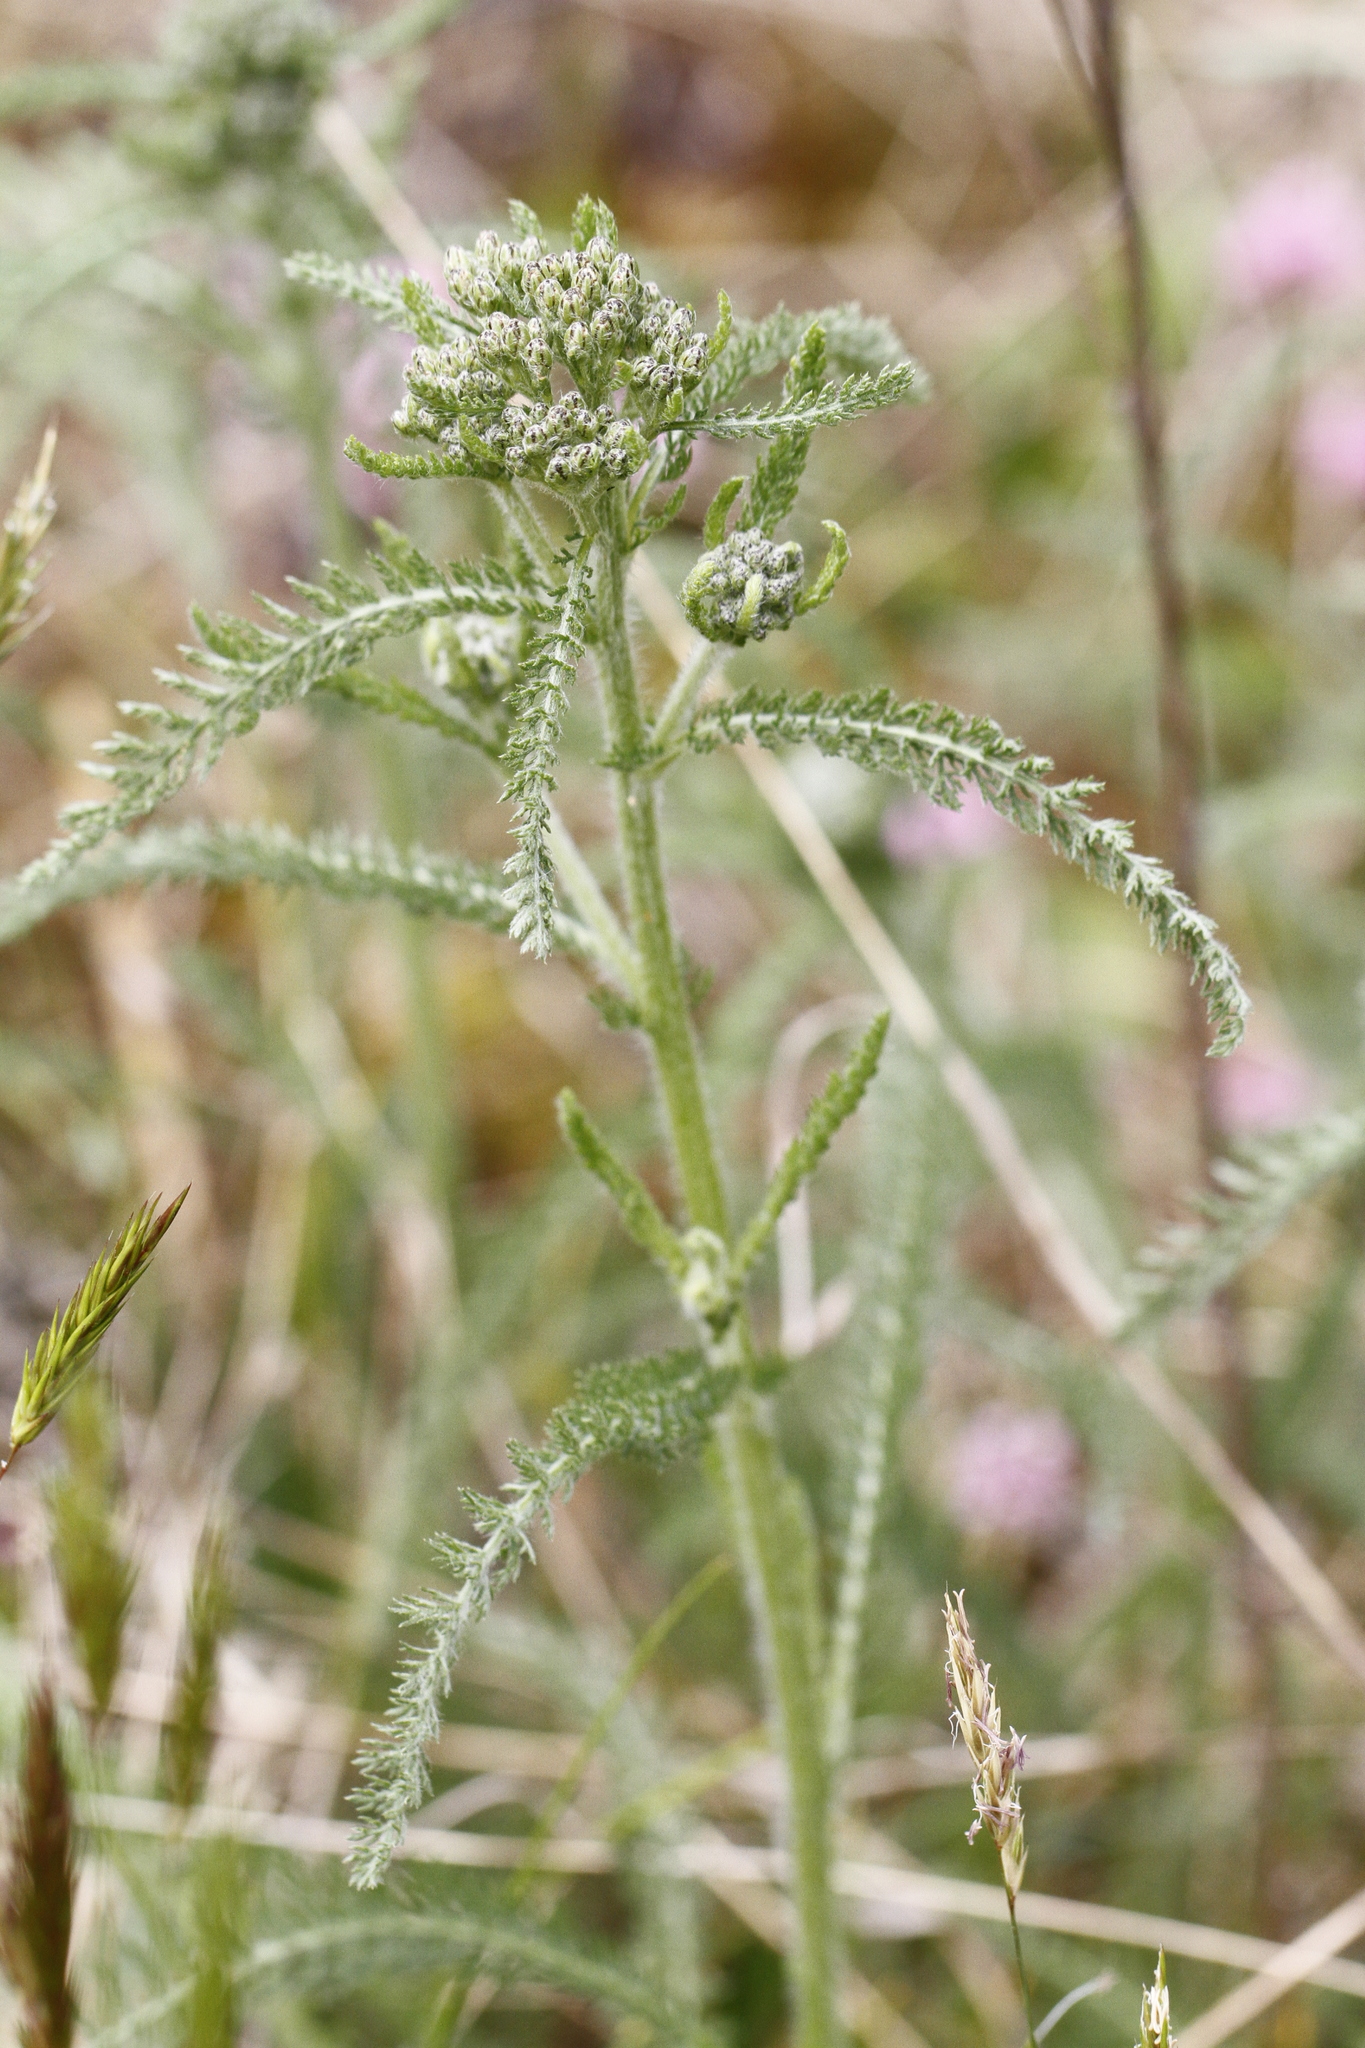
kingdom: Plantae
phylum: Tracheophyta
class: Magnoliopsida
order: Asterales
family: Asteraceae
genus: Achillea
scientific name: Achillea millefolium
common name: Yarrow
